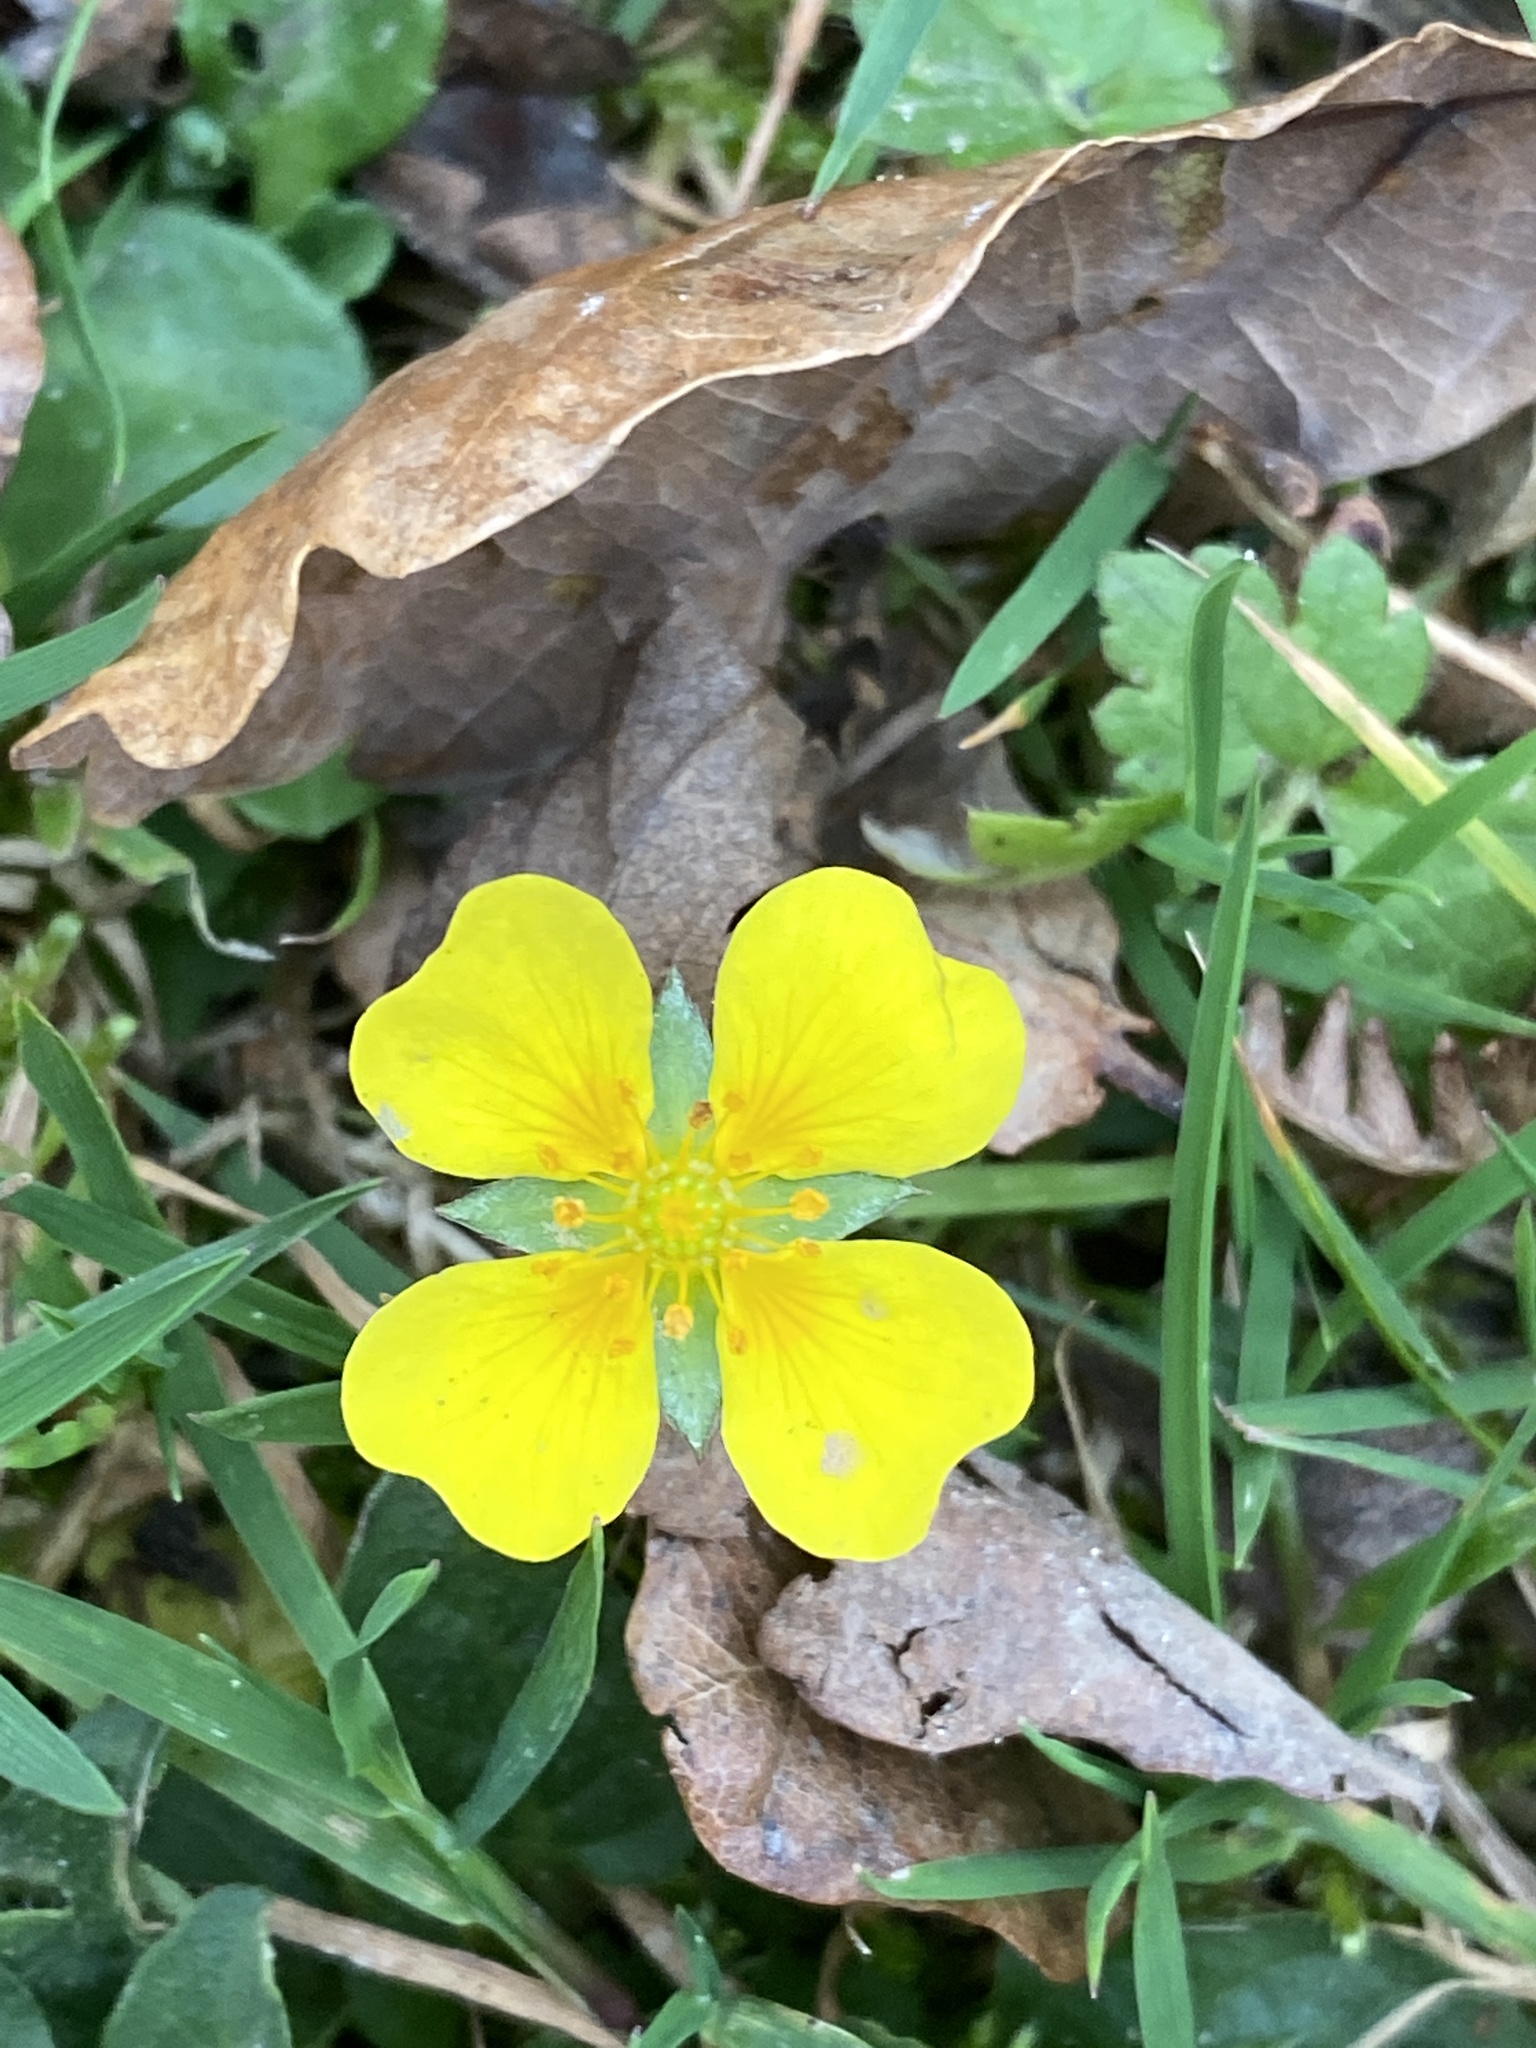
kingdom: Plantae
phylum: Tracheophyta
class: Magnoliopsida
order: Rosales
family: Rosaceae
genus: Potentilla
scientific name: Potentilla erecta
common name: Tormentil
